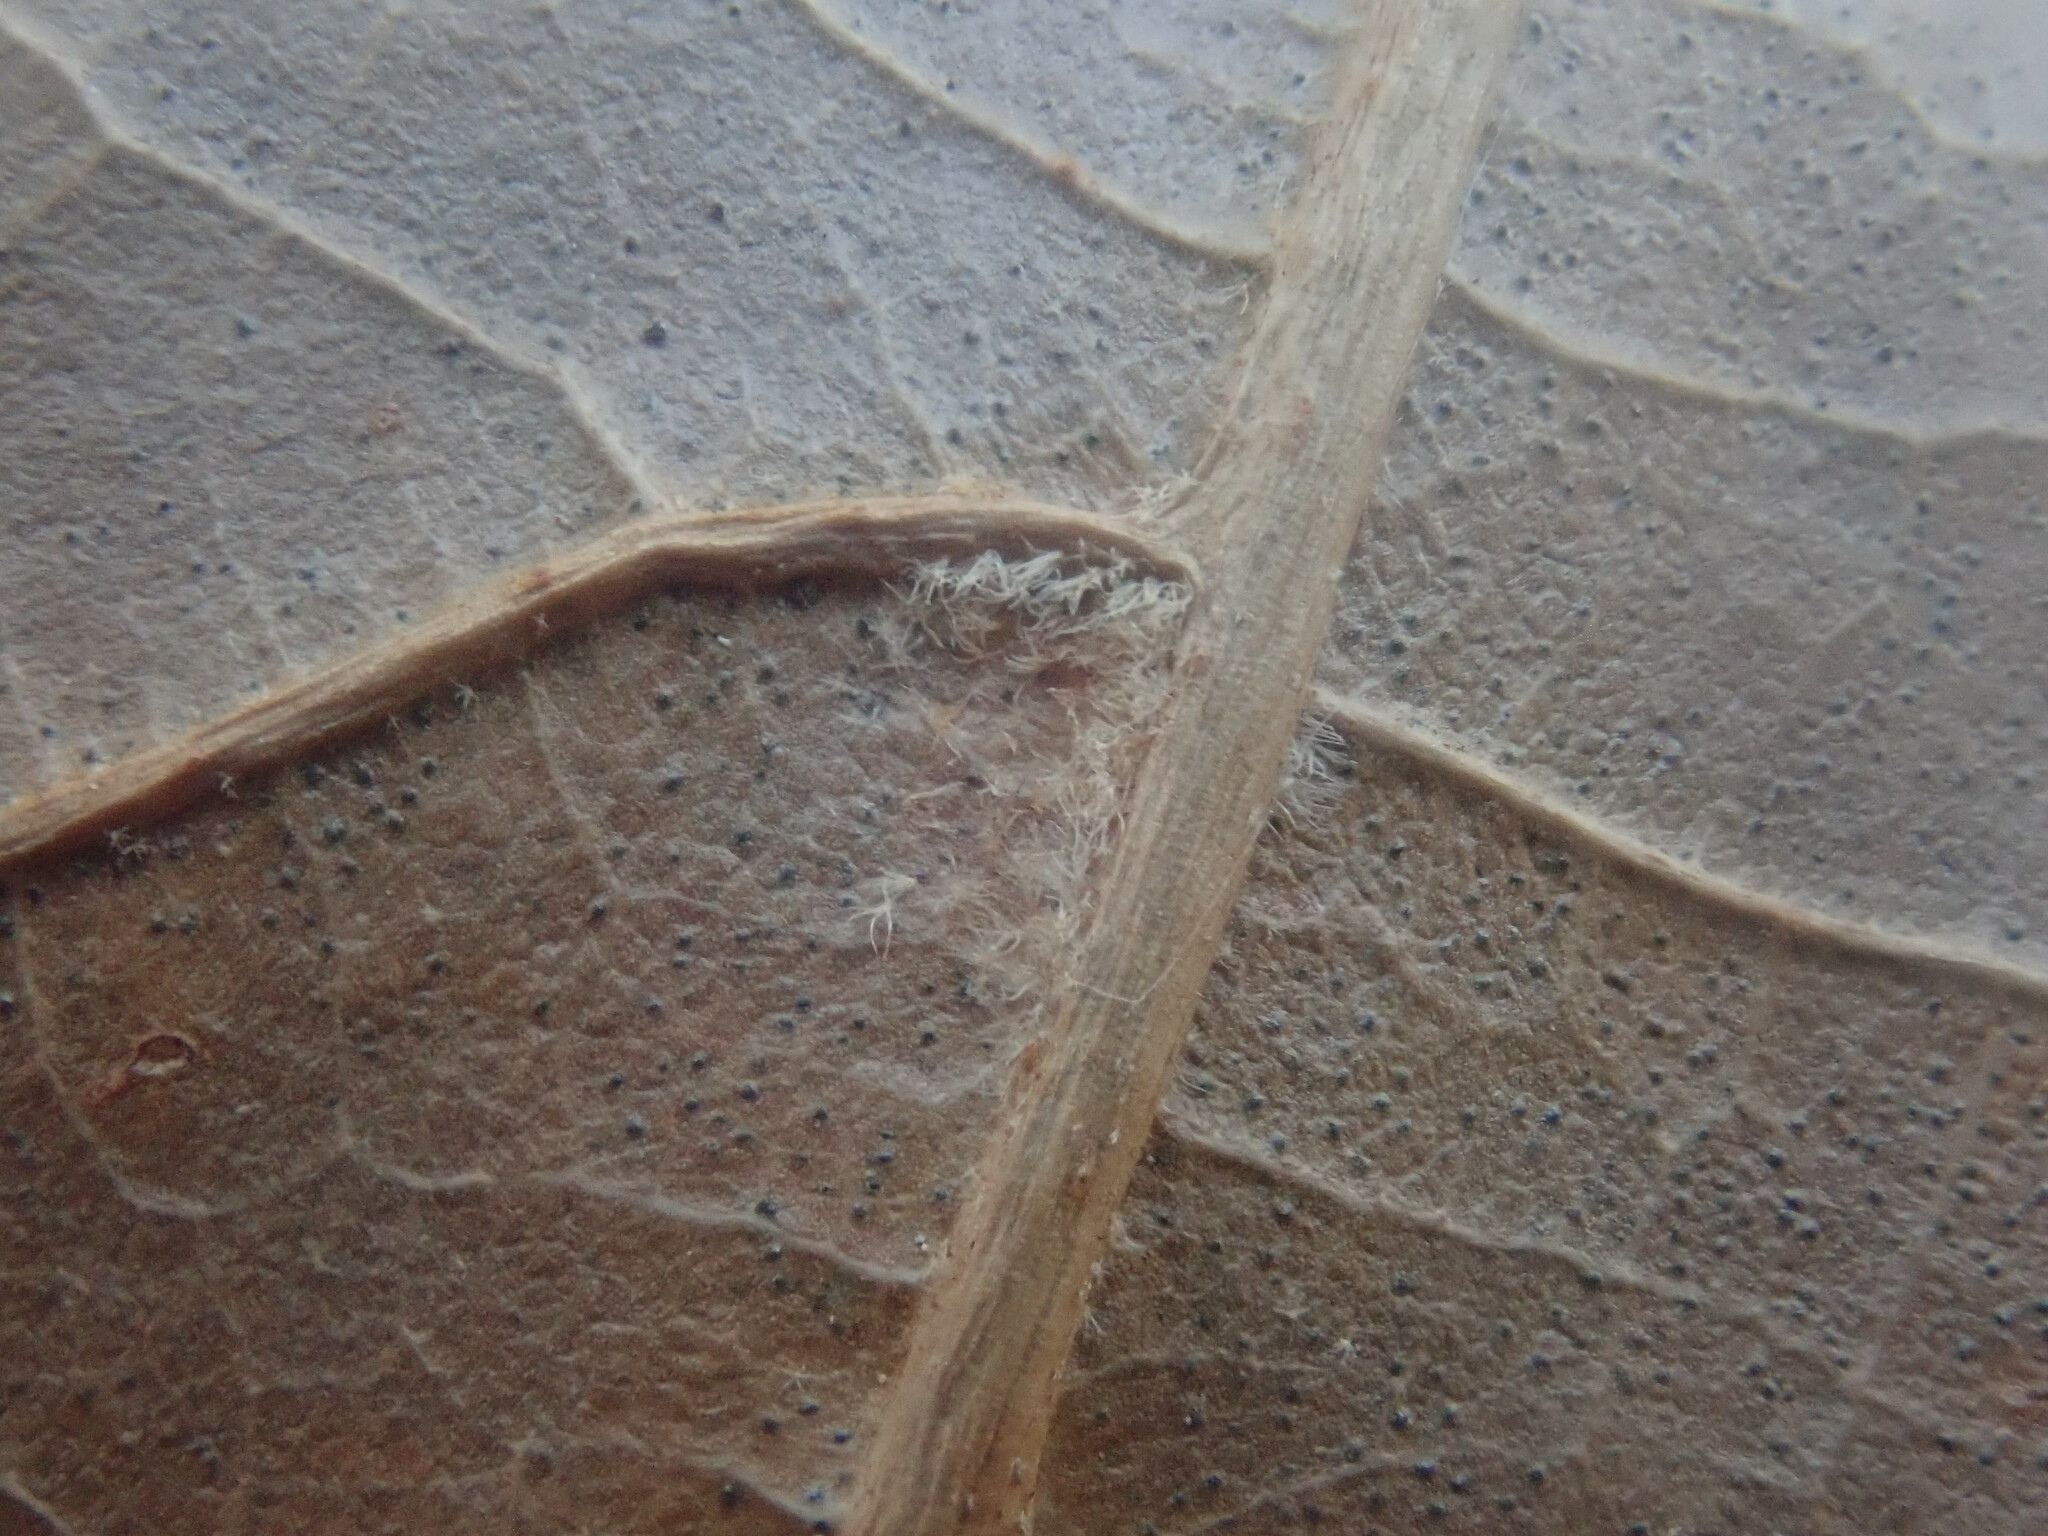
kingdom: Plantae
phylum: Tracheophyta
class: Magnoliopsida
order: Fagales
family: Fagaceae
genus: Quercus
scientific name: Quercus velutina
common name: Black oak
